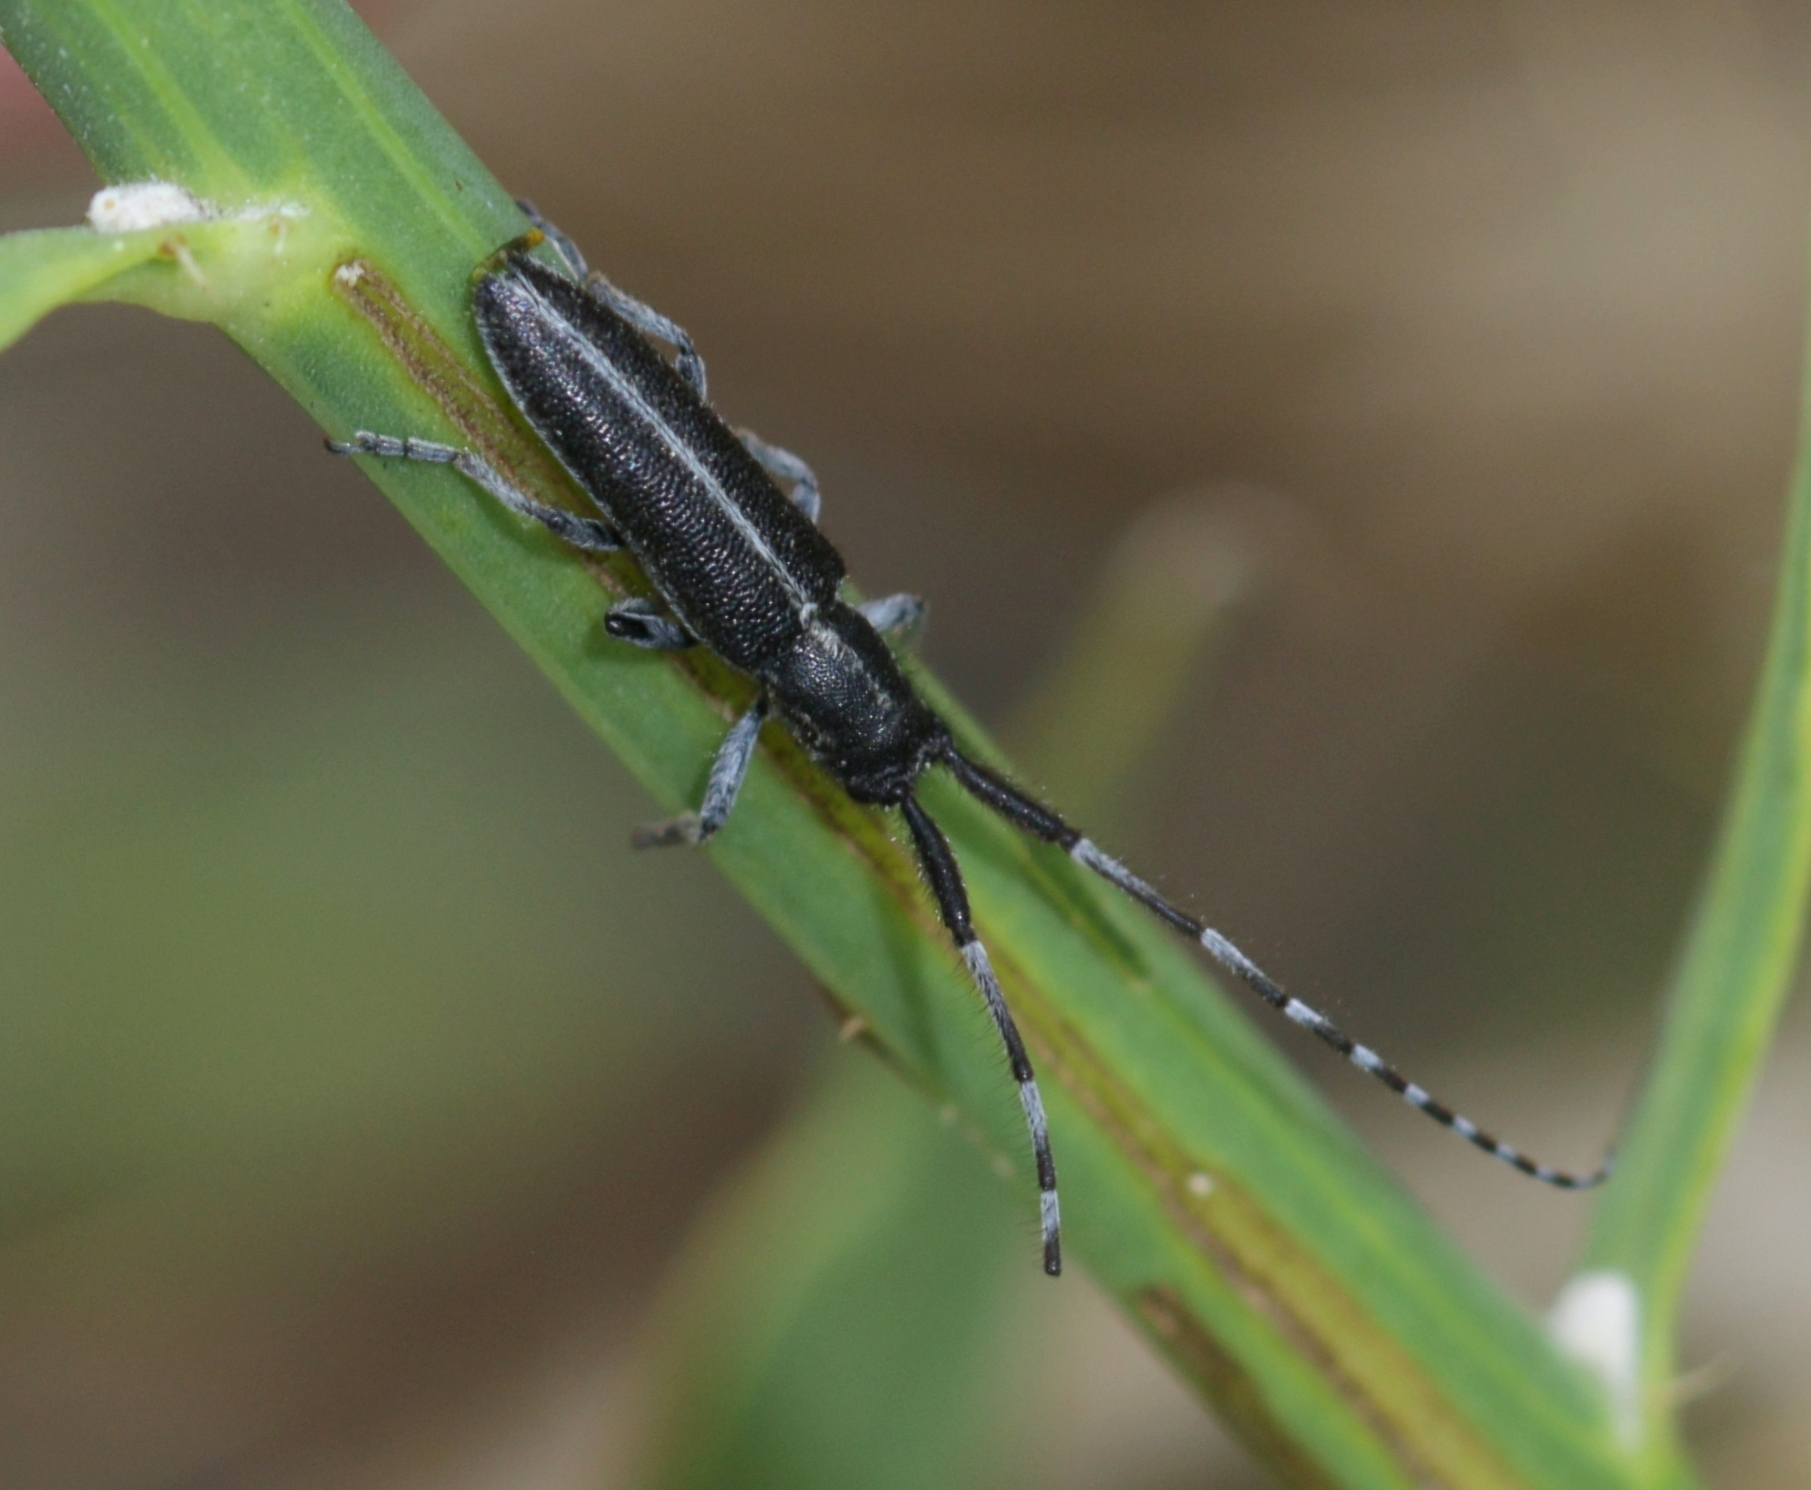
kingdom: Animalia
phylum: Arthropoda
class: Insecta
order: Coleoptera
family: Cerambycidae
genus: Agapanthia
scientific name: Agapanthia suturalis
